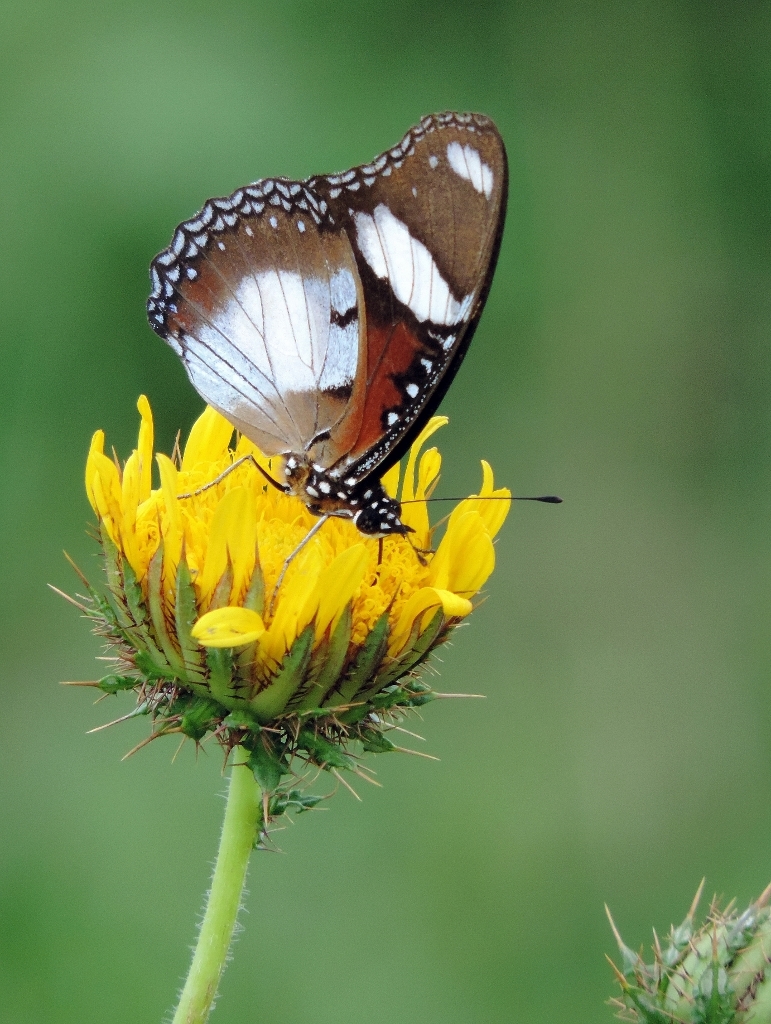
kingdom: Animalia
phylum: Arthropoda
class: Insecta
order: Lepidoptera
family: Nymphalidae
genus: Hypolimnas
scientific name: Hypolimnas misippus
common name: False plain tiger
